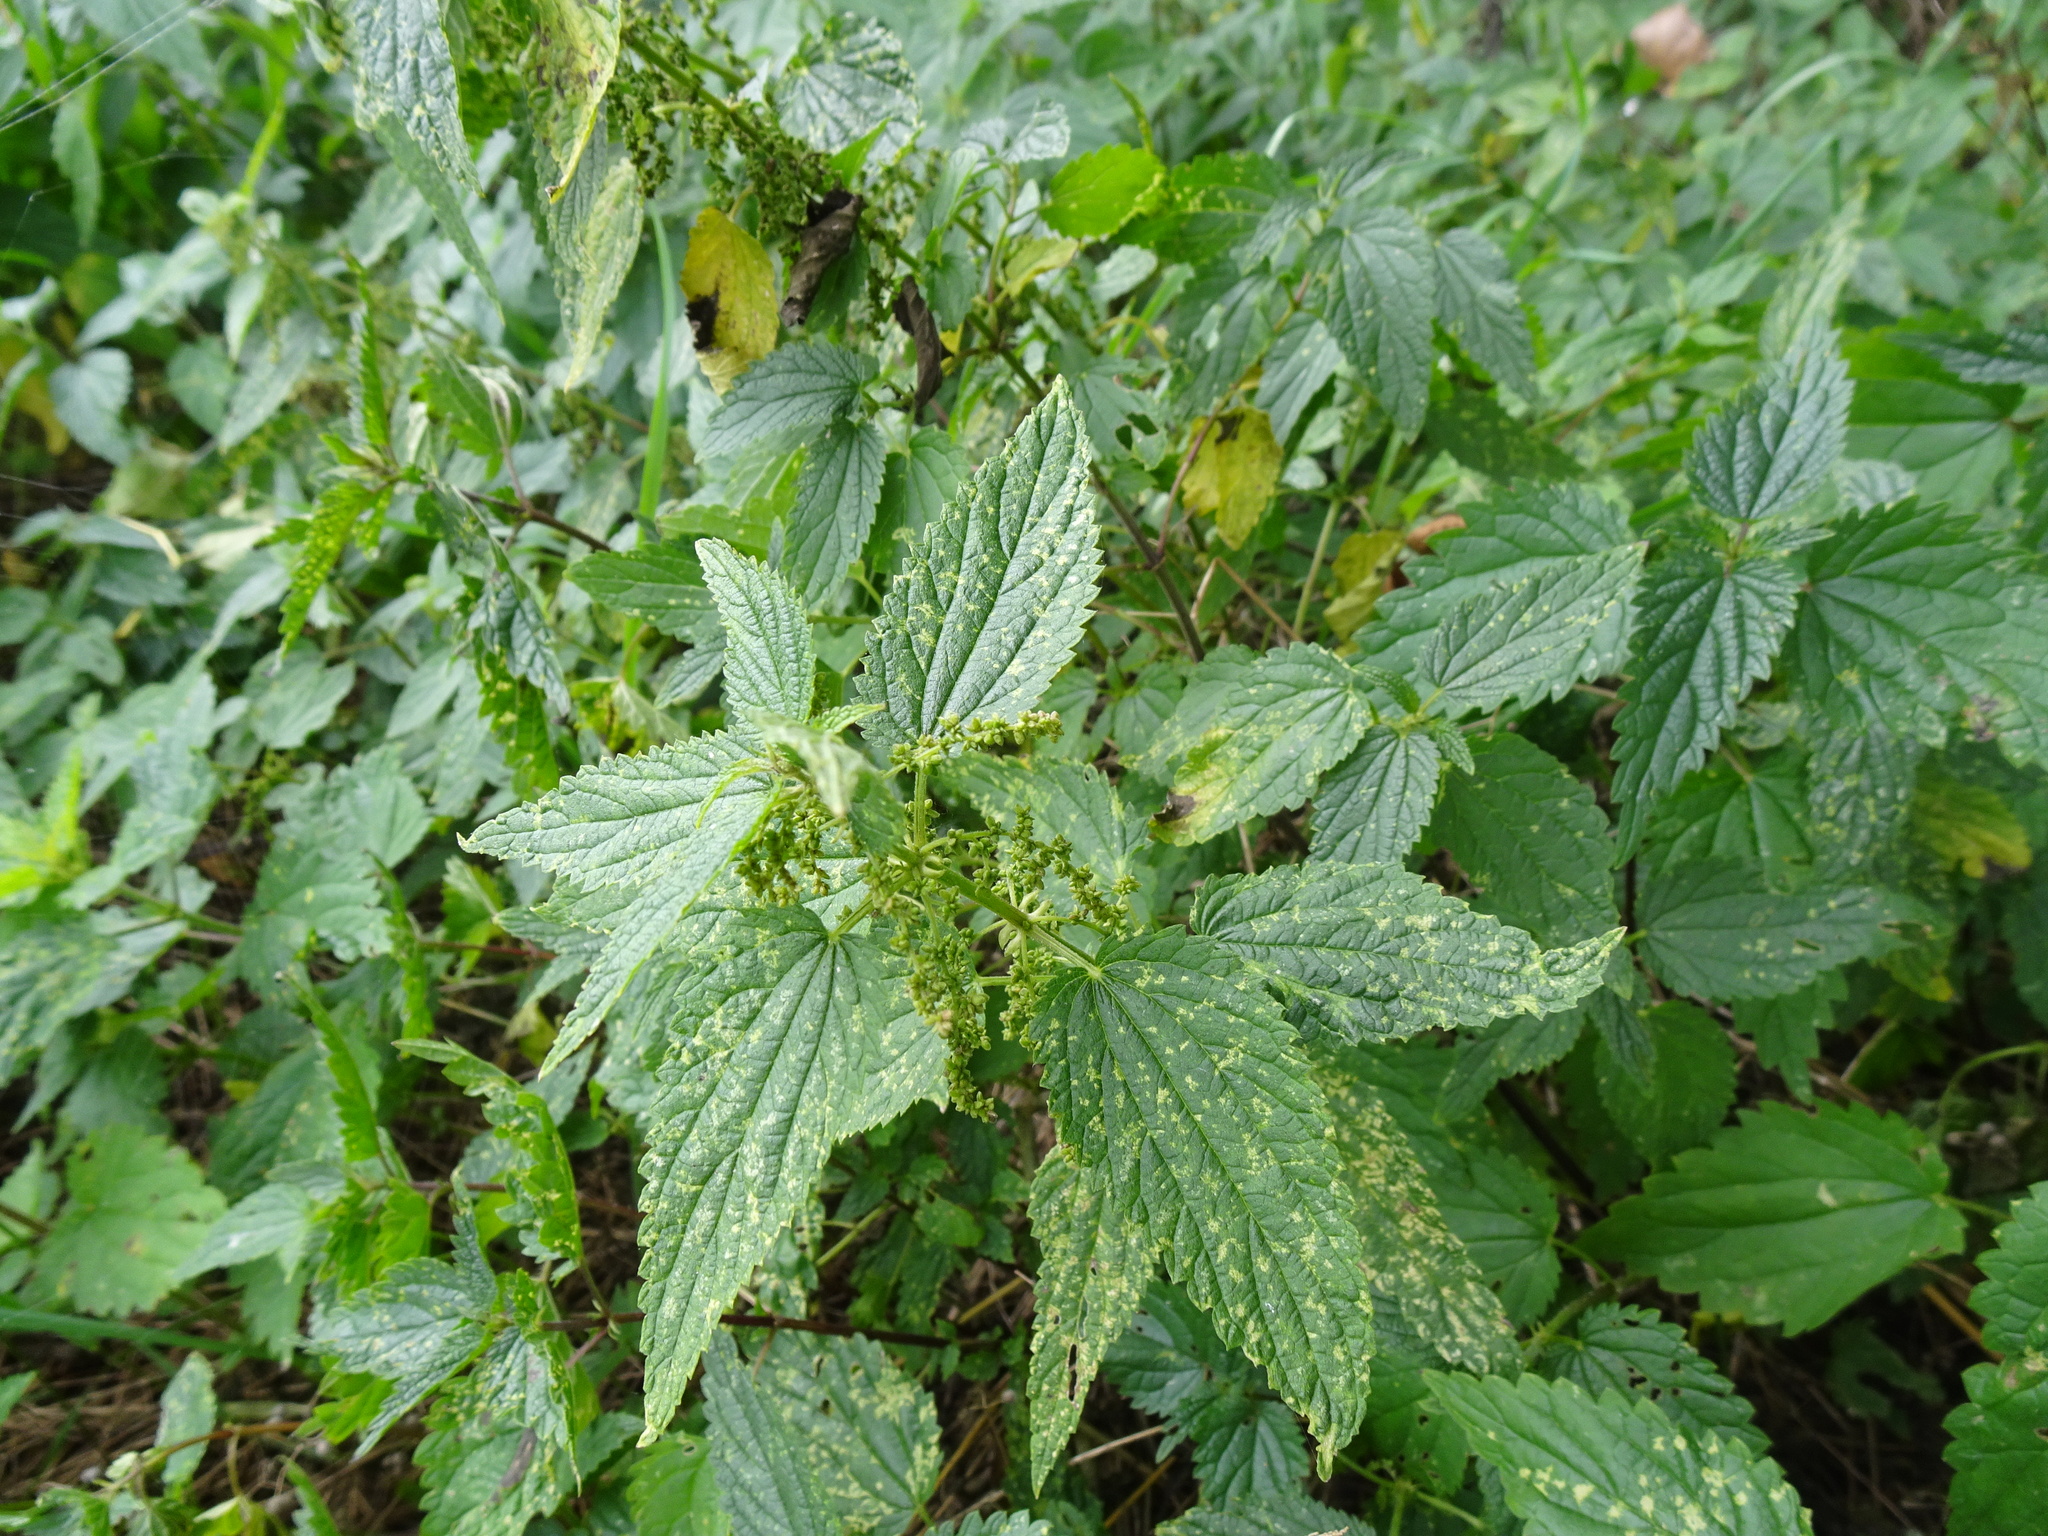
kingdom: Plantae
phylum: Tracheophyta
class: Magnoliopsida
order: Rosales
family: Urticaceae
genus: Urtica
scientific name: Urtica dioica
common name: Common nettle
